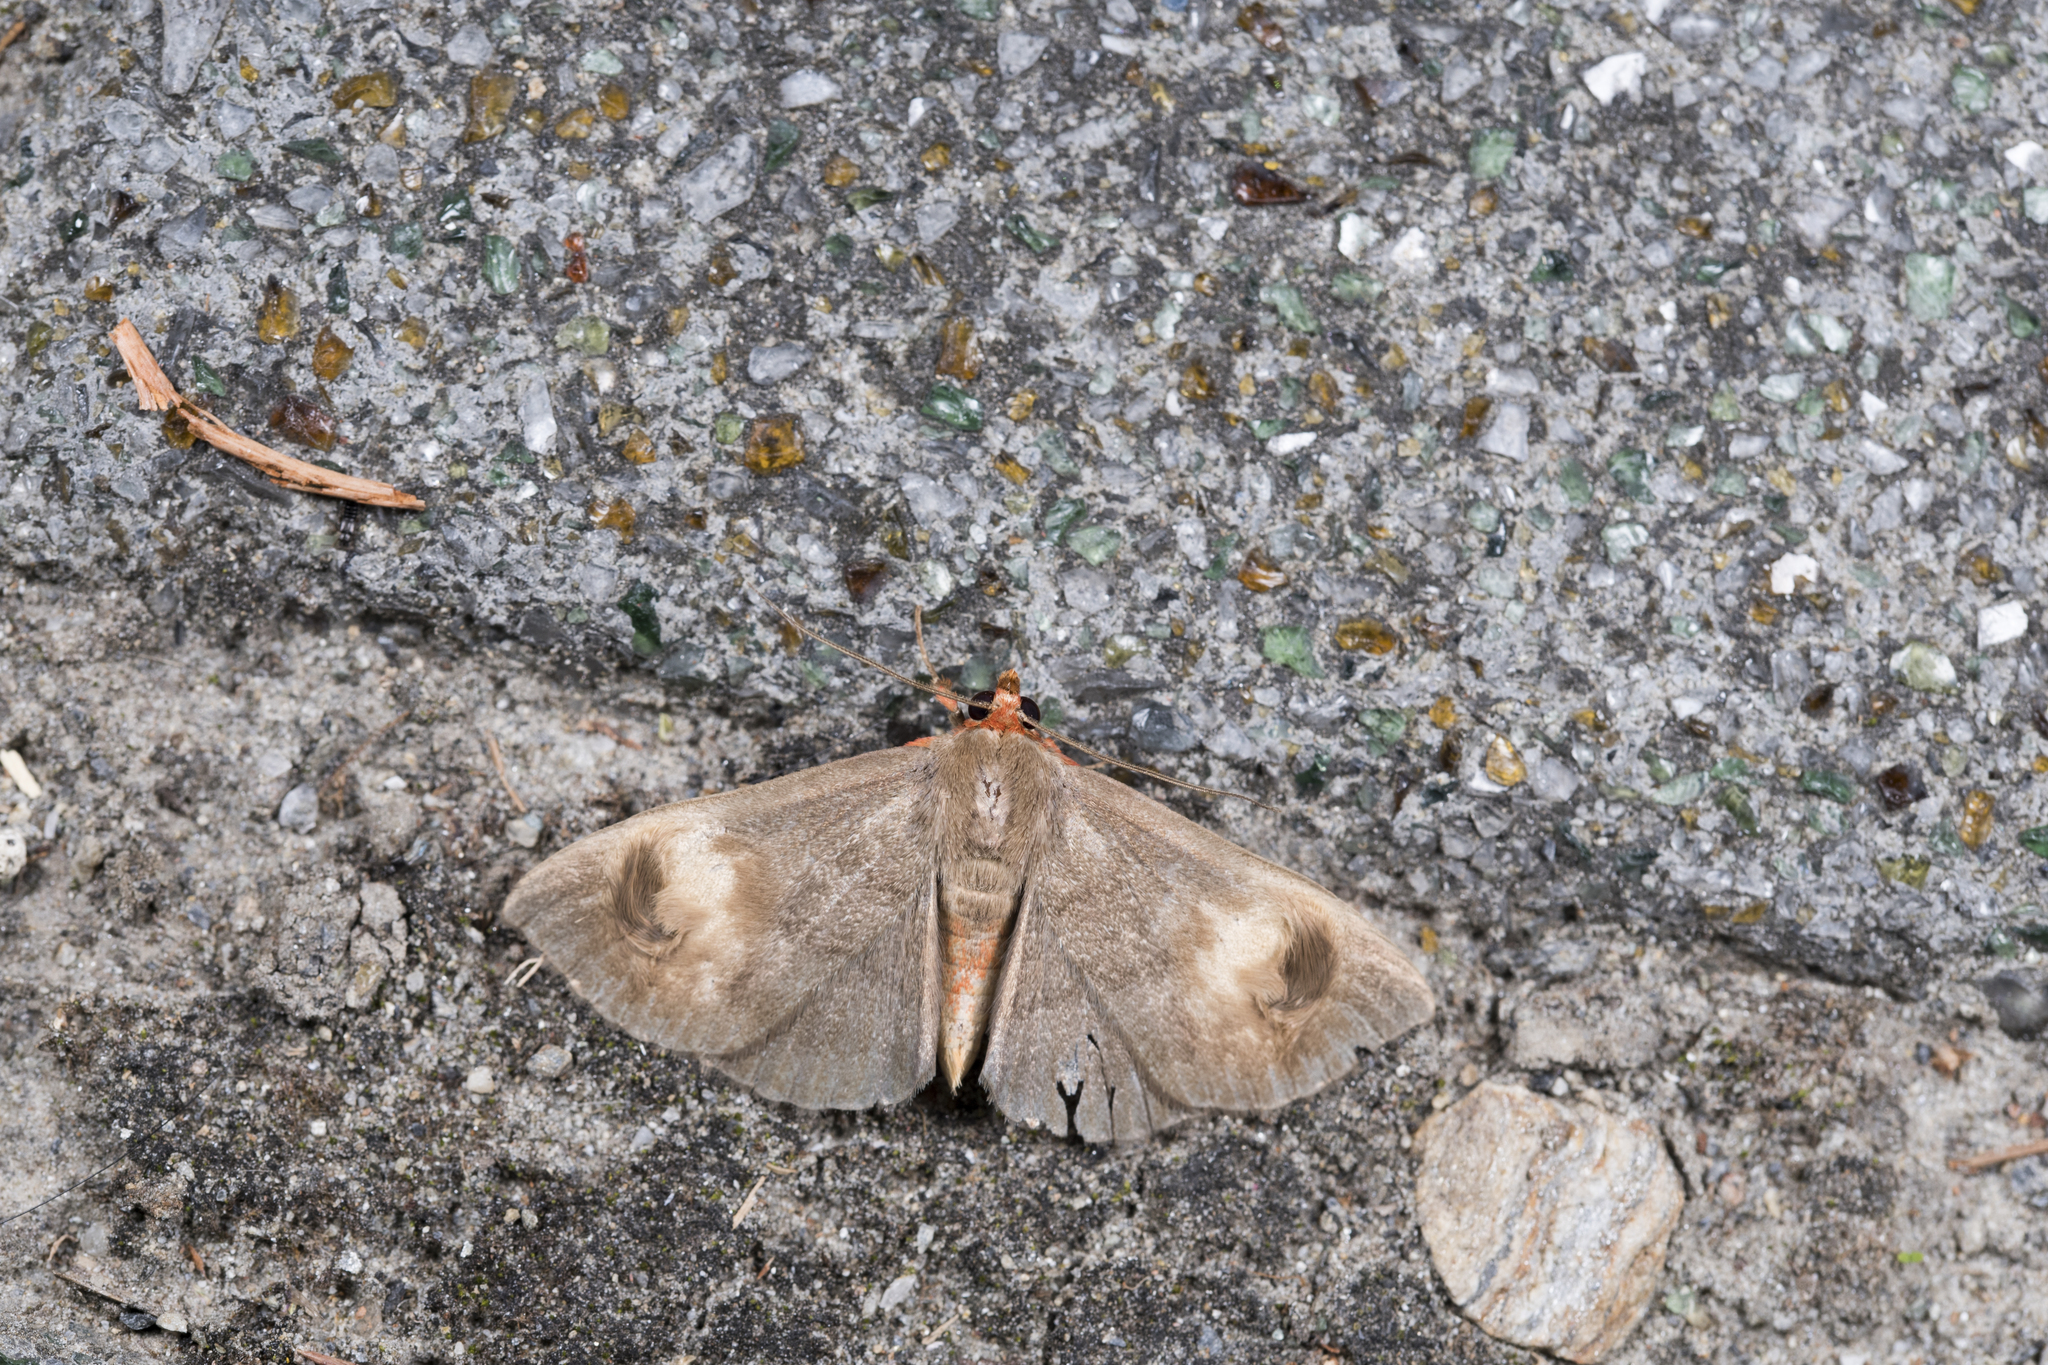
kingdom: Animalia
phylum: Arthropoda
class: Insecta
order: Lepidoptera
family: Erebidae
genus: Calesia
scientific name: Calesia dasyptera
